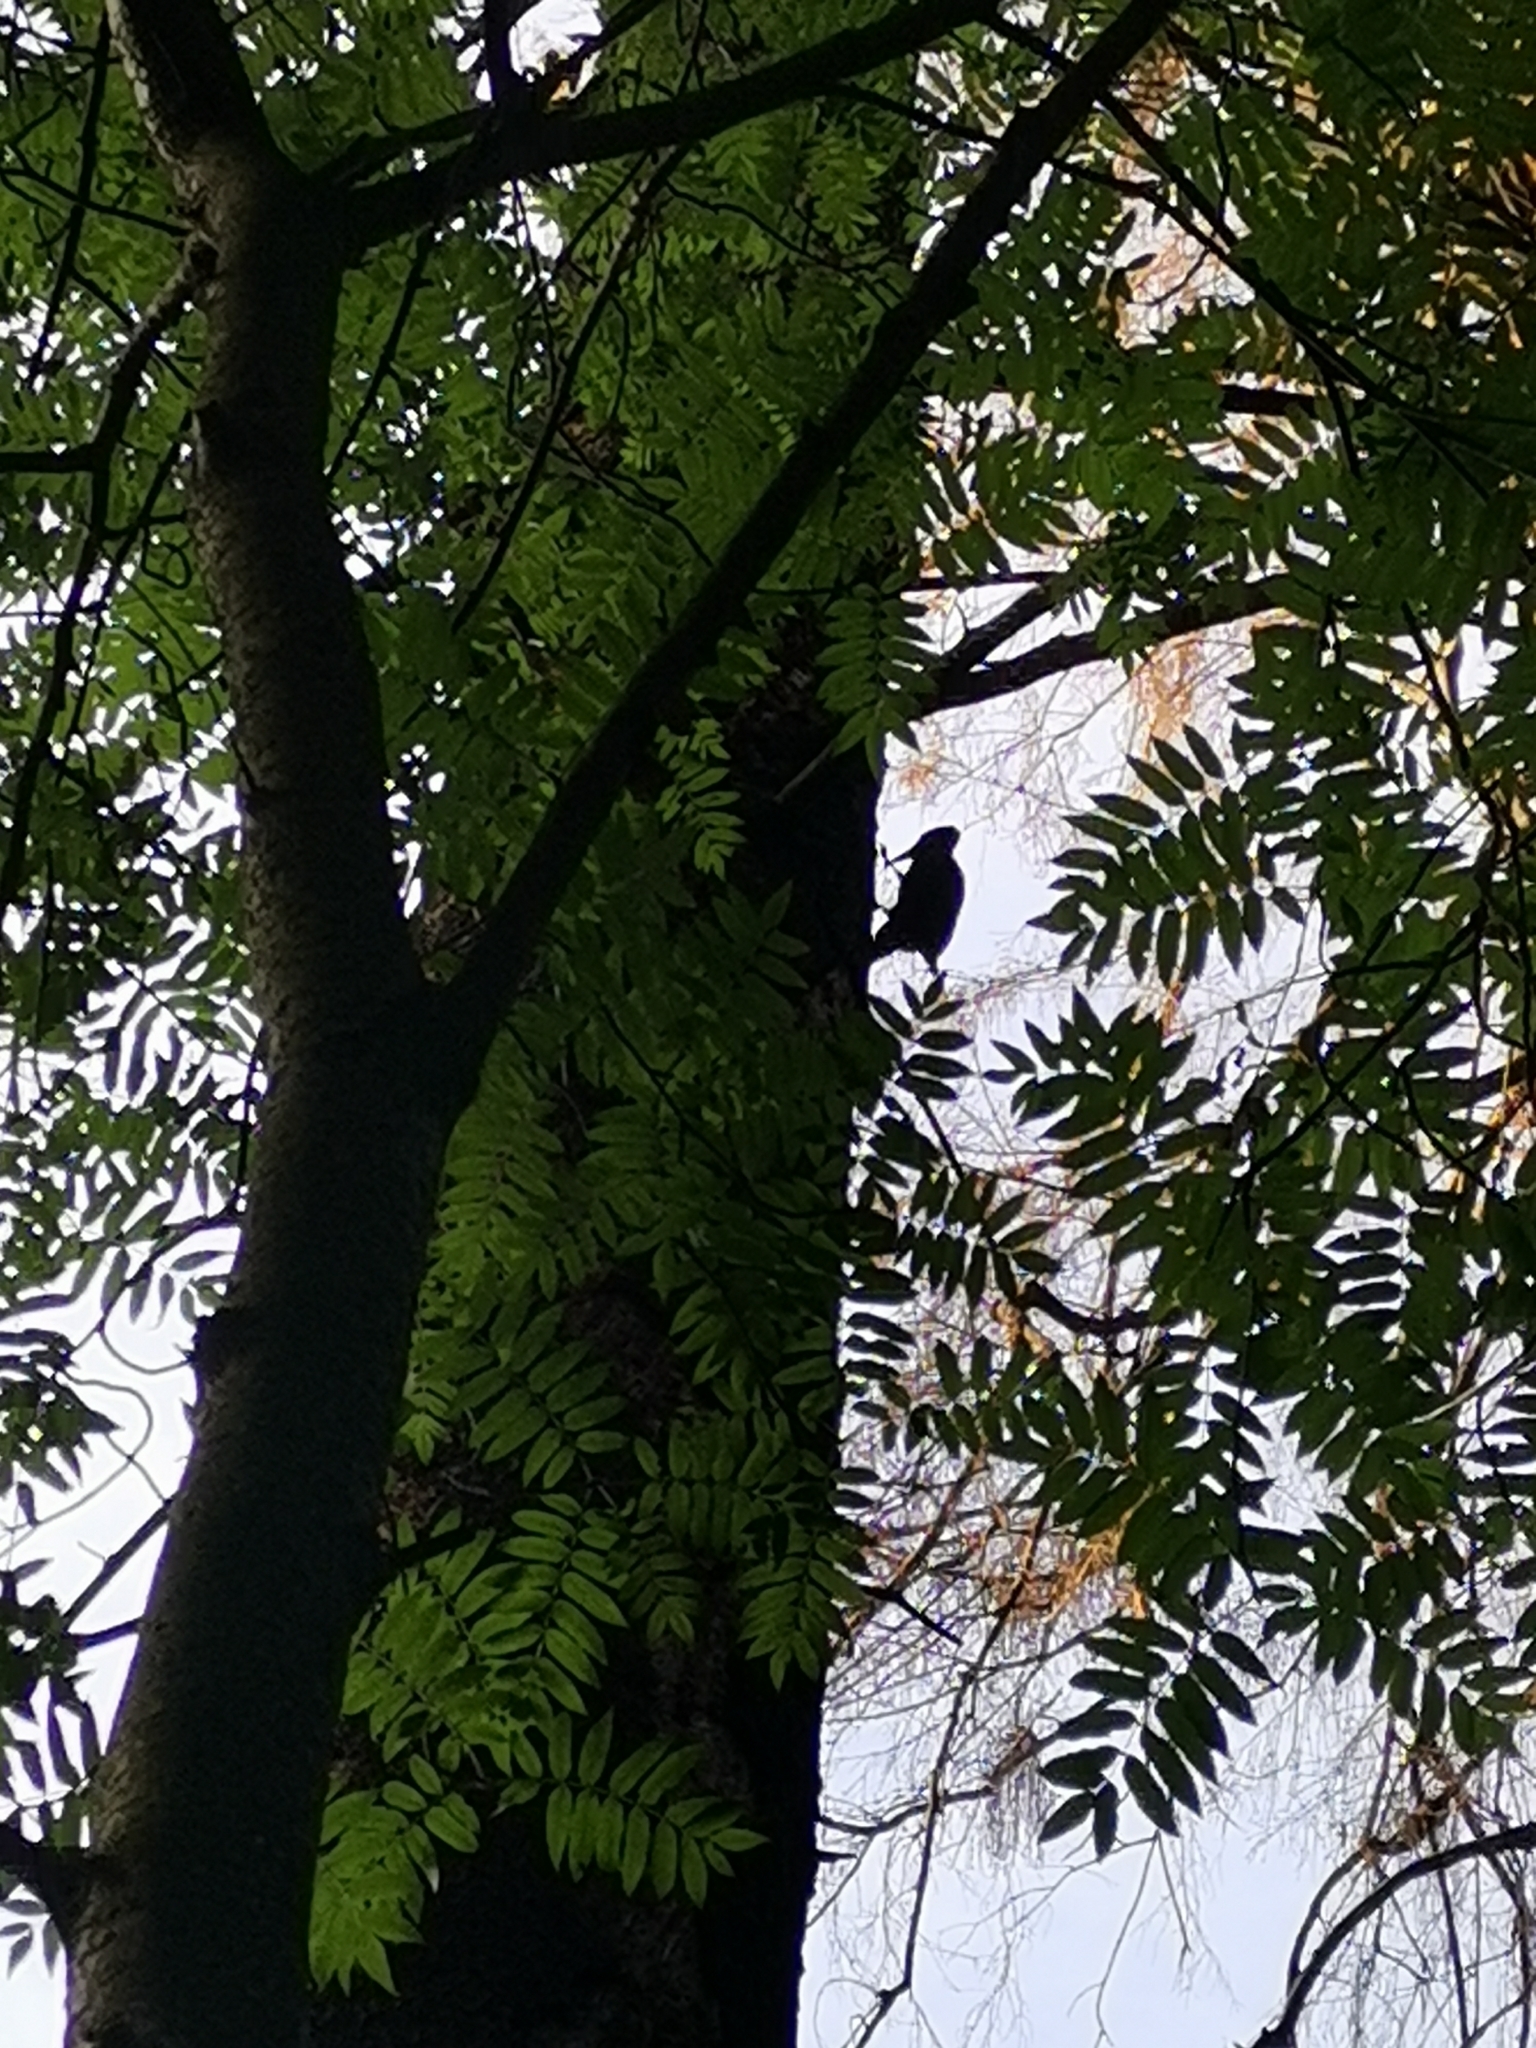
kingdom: Animalia
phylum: Chordata
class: Aves
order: Piciformes
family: Picidae
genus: Dryocopus
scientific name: Dryocopus martius
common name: Black woodpecker
